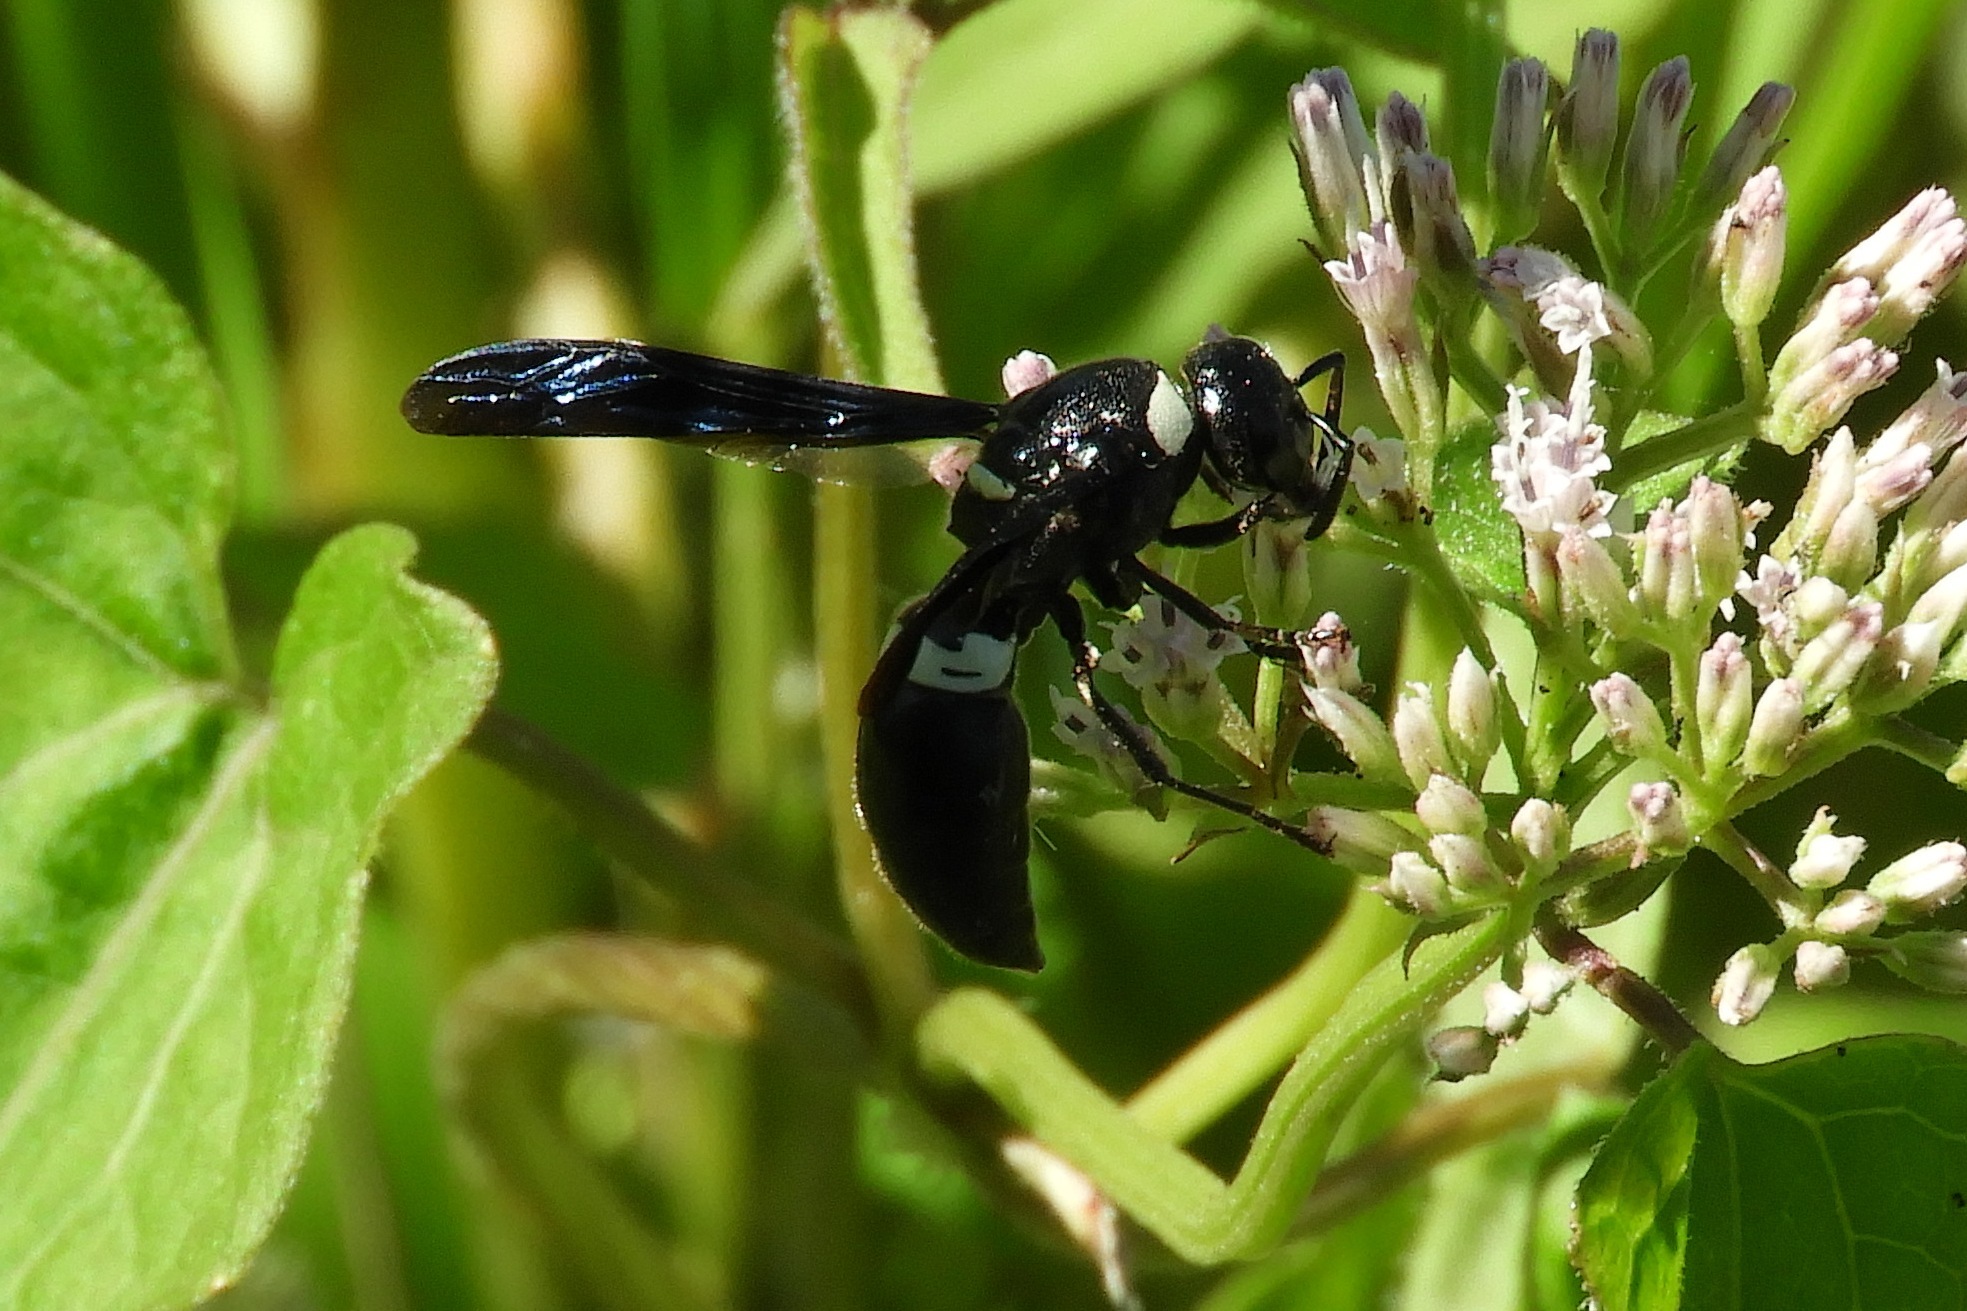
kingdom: Animalia
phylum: Arthropoda
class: Insecta
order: Hymenoptera
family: Eumenidae
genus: Monobia
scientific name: Monobia quadridens
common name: Four-toothed mason wasp
